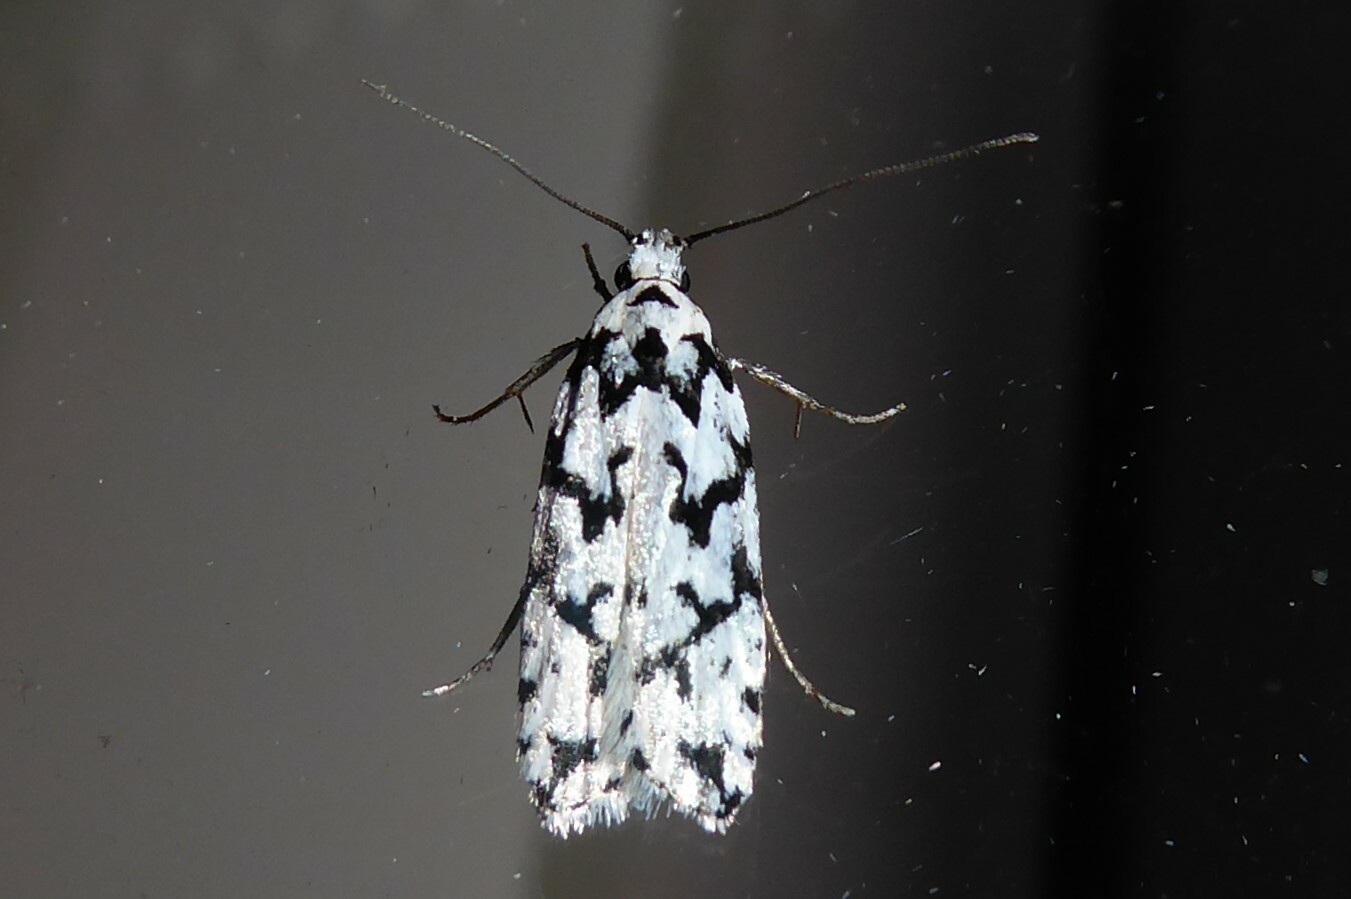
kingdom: Animalia
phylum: Arthropoda
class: Insecta
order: Lepidoptera
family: Oecophoridae
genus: Izatha
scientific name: Izatha katadiktya
